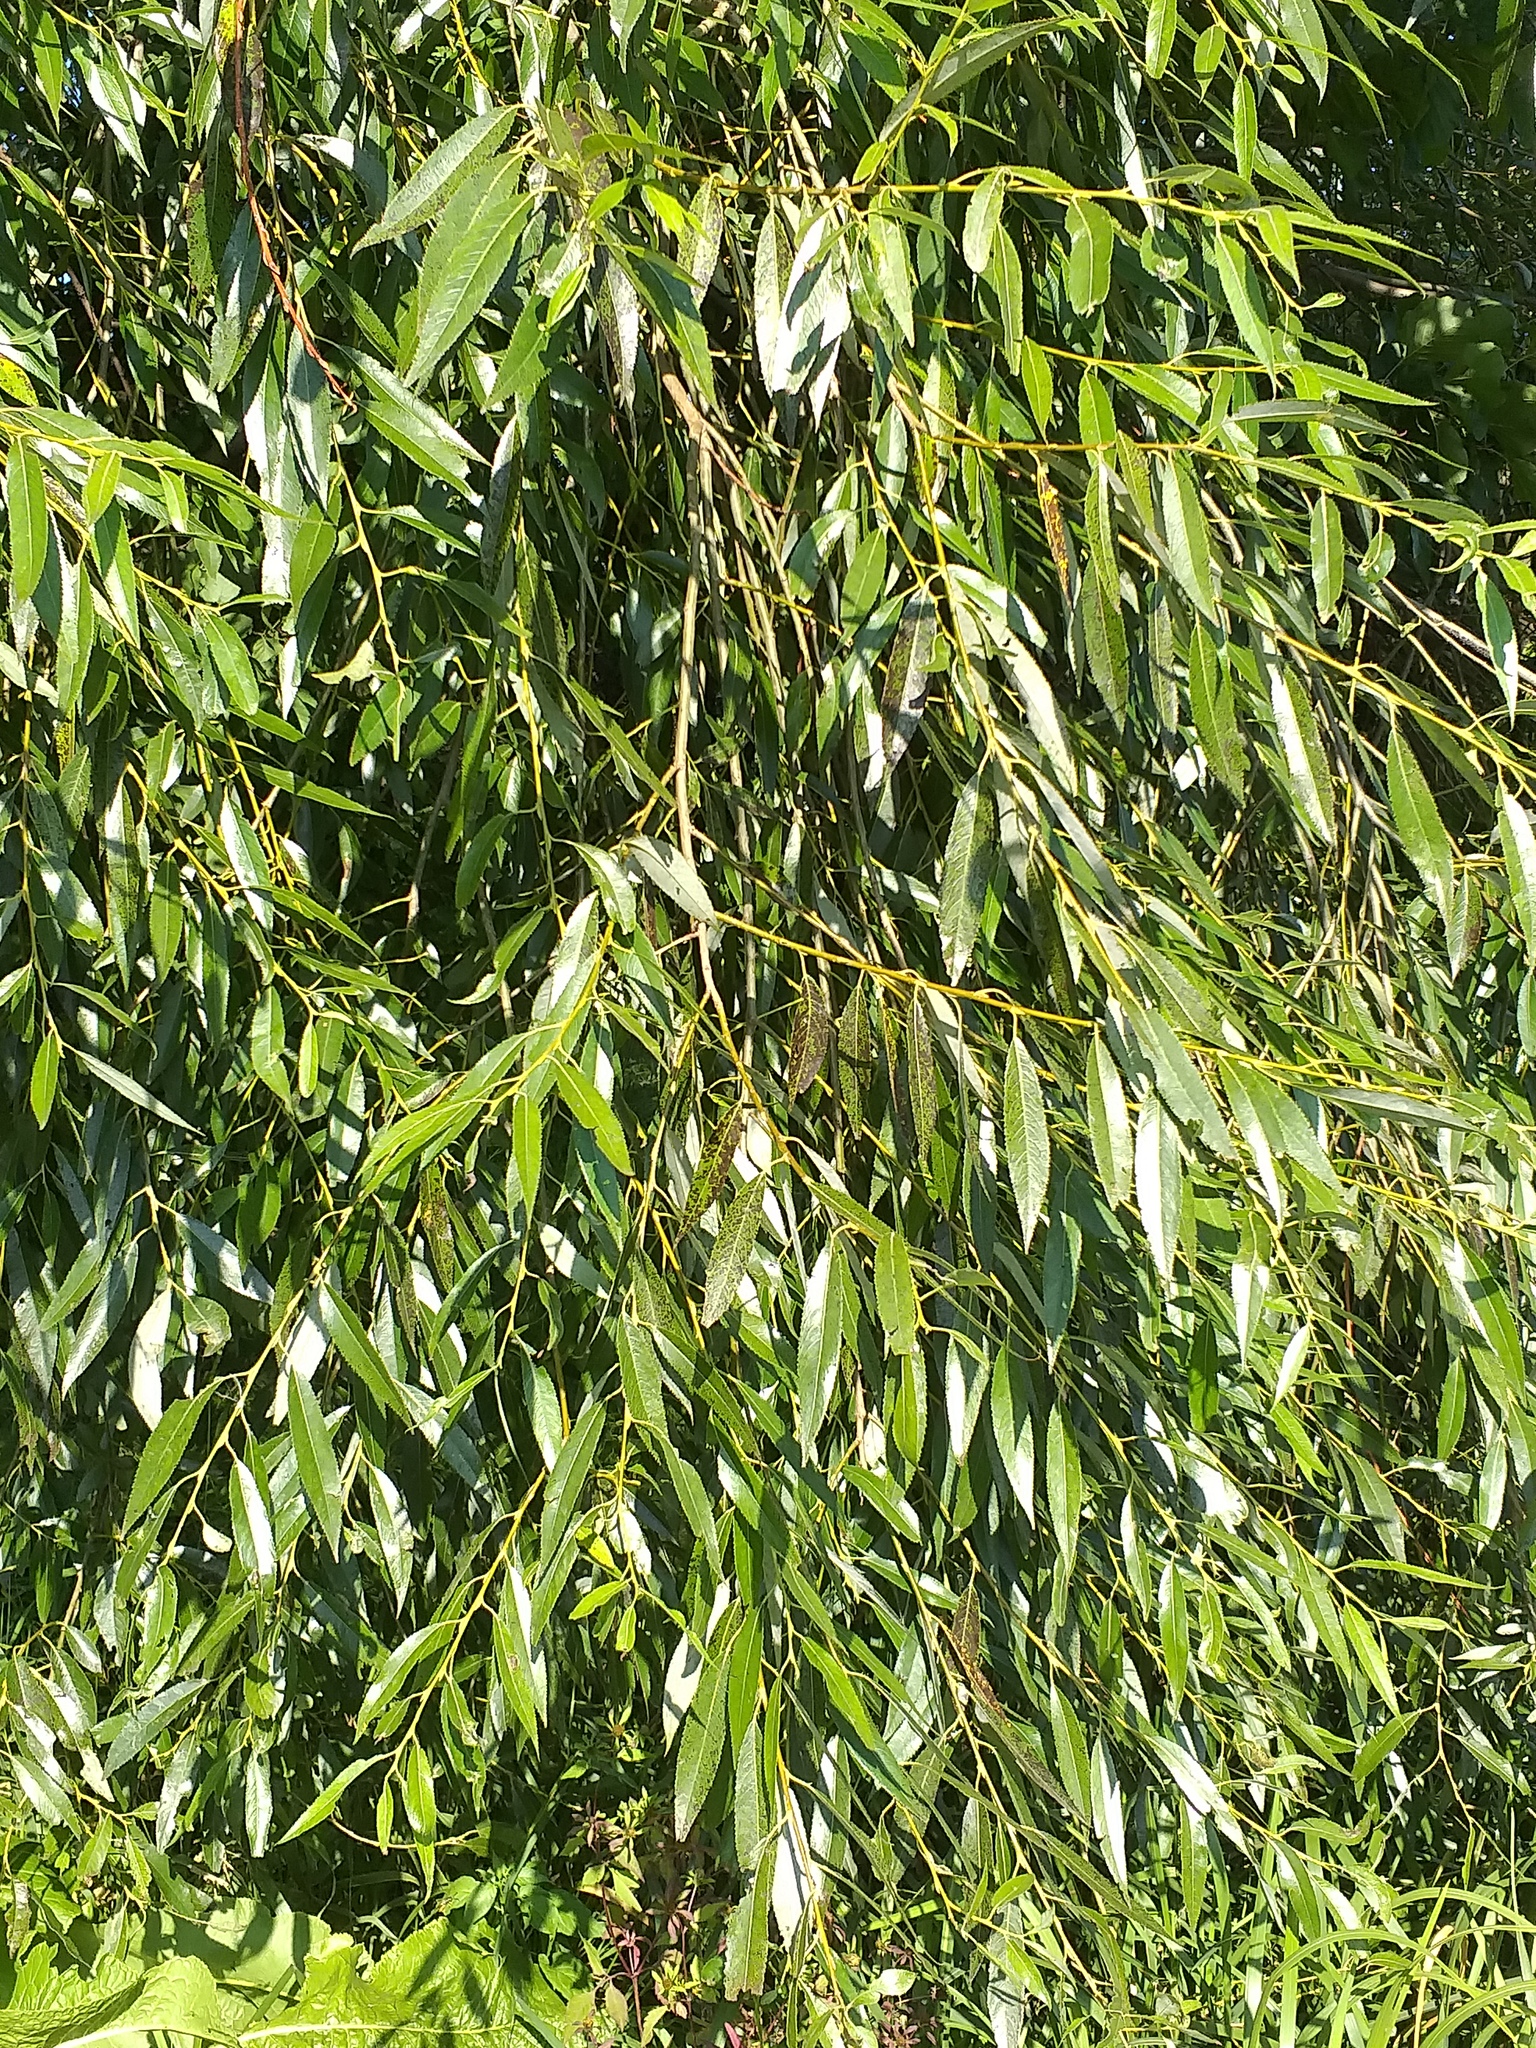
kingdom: Plantae
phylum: Tracheophyta
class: Magnoliopsida
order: Malpighiales
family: Salicaceae
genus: Salix
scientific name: Salix alba
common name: White willow
